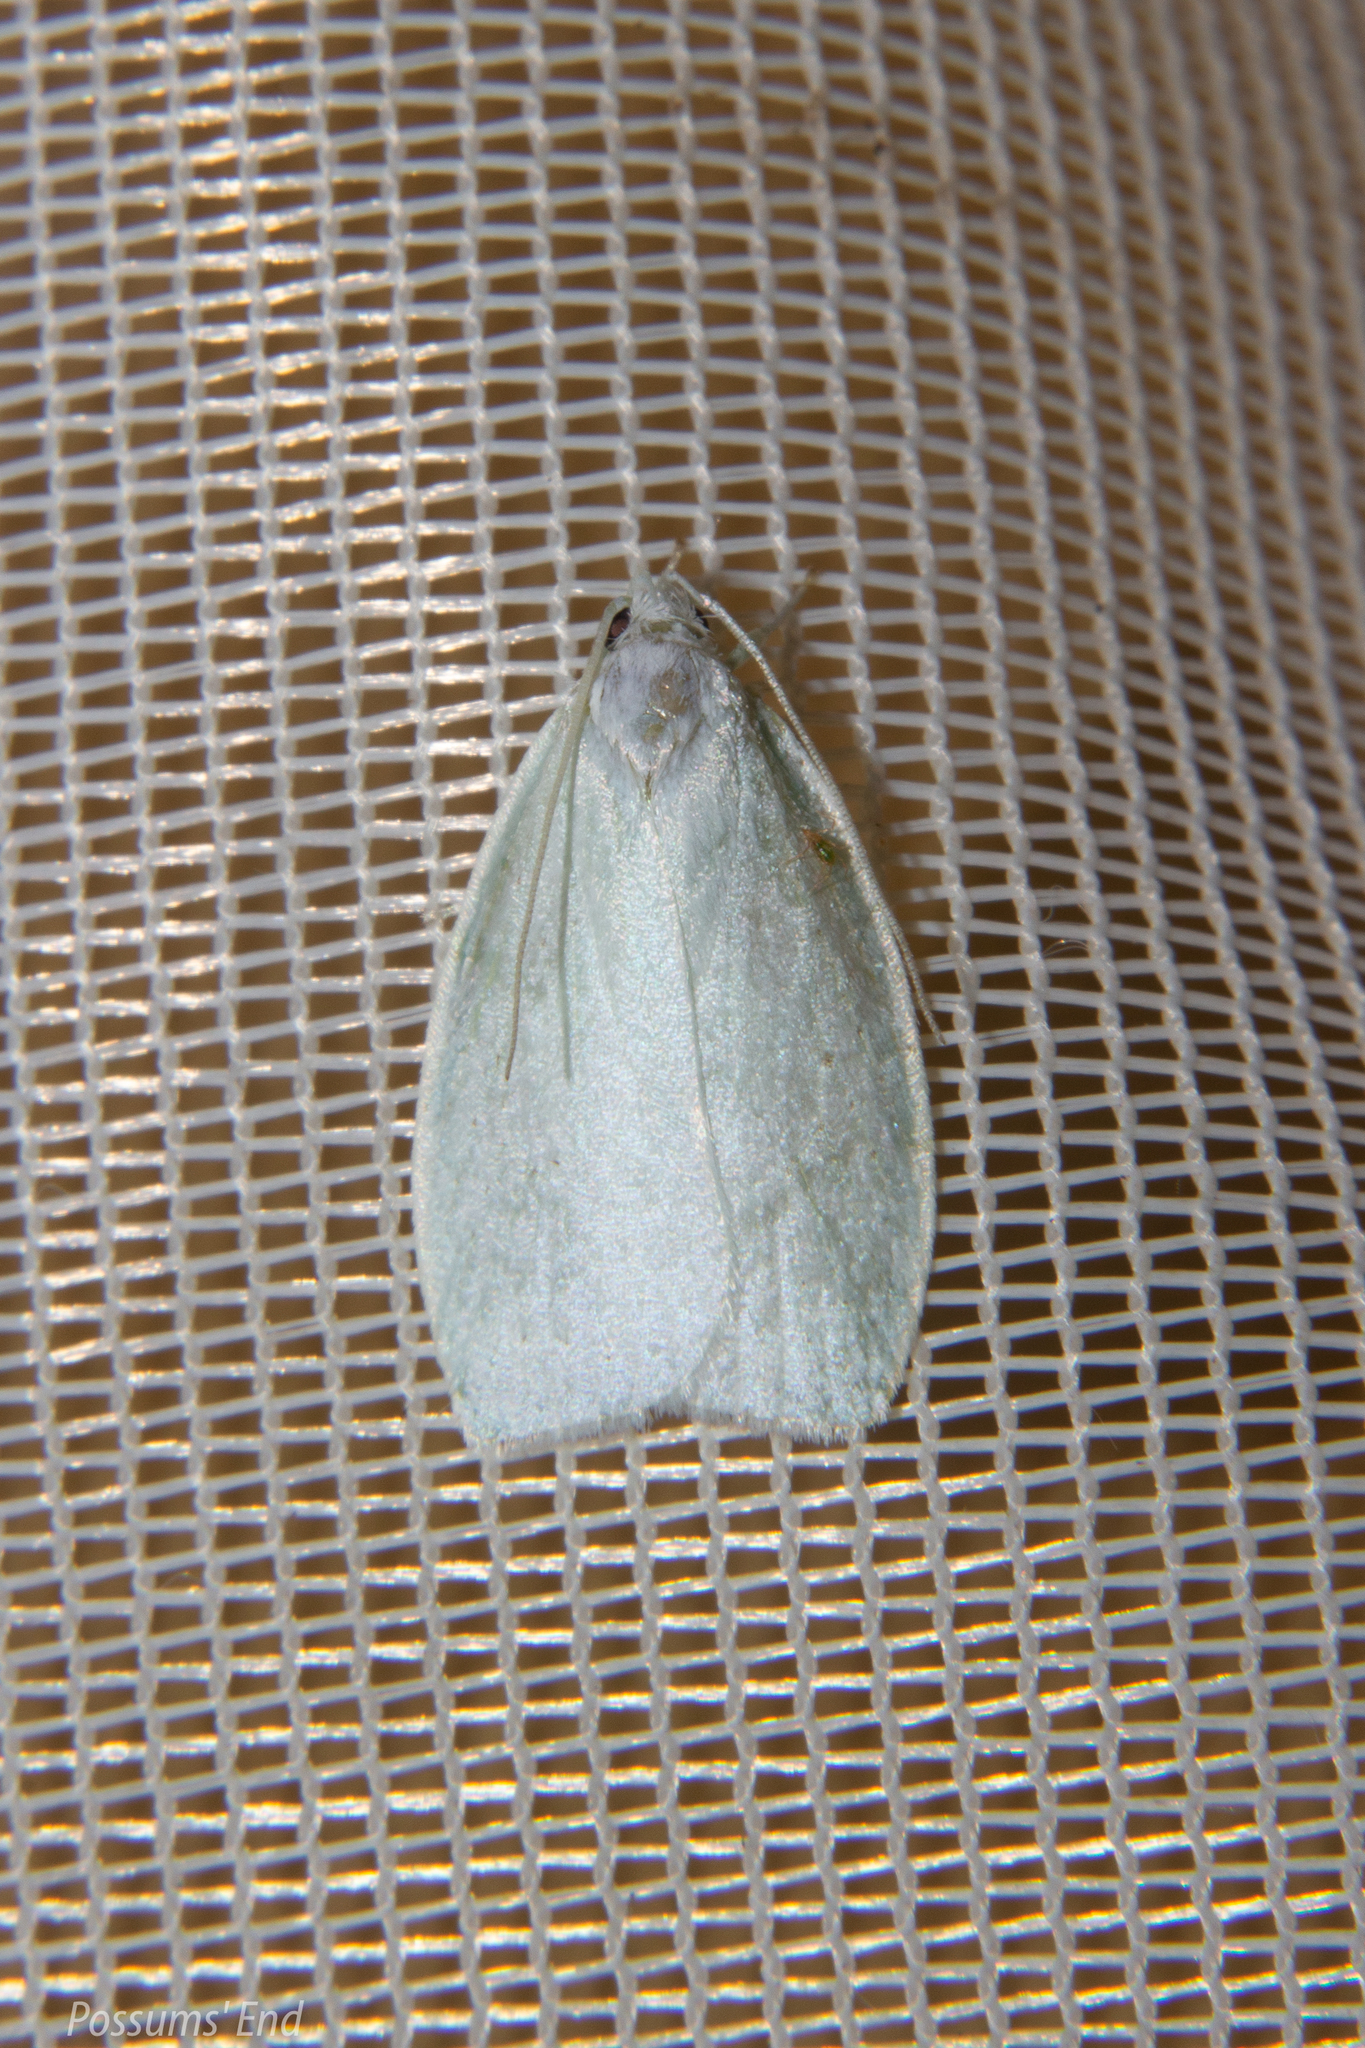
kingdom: Animalia
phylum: Arthropoda
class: Insecta
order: Lepidoptera
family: Oecophoridae
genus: Nymphostola
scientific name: Nymphostola galactina
